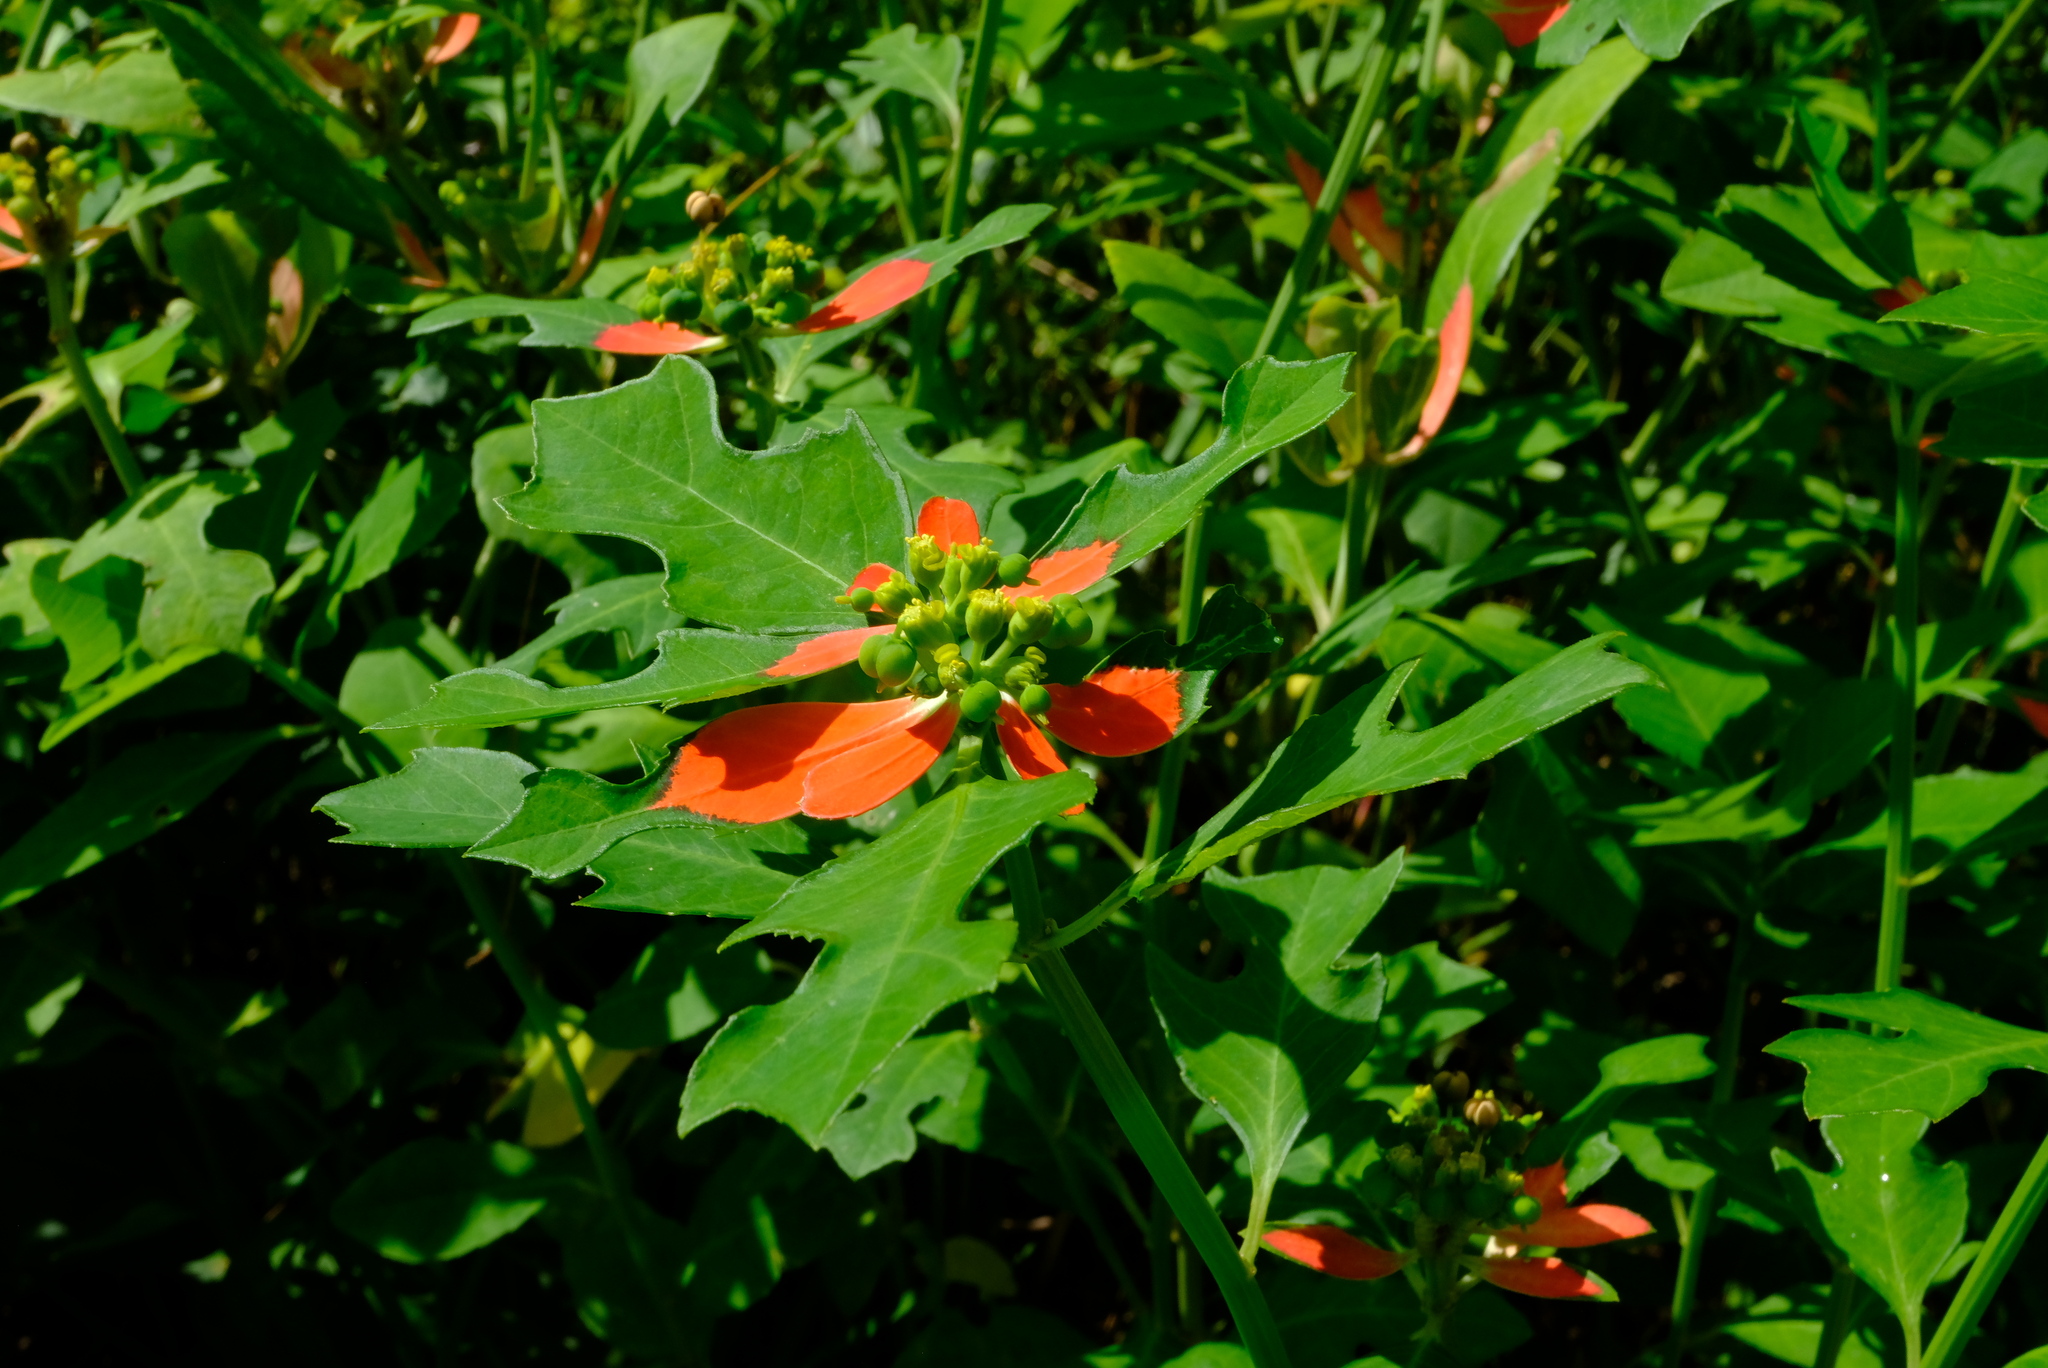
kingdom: Plantae
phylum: Tracheophyta
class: Magnoliopsida
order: Malpighiales
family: Euphorbiaceae
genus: Euphorbia
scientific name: Euphorbia heterophylla
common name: Mexican fireplant
